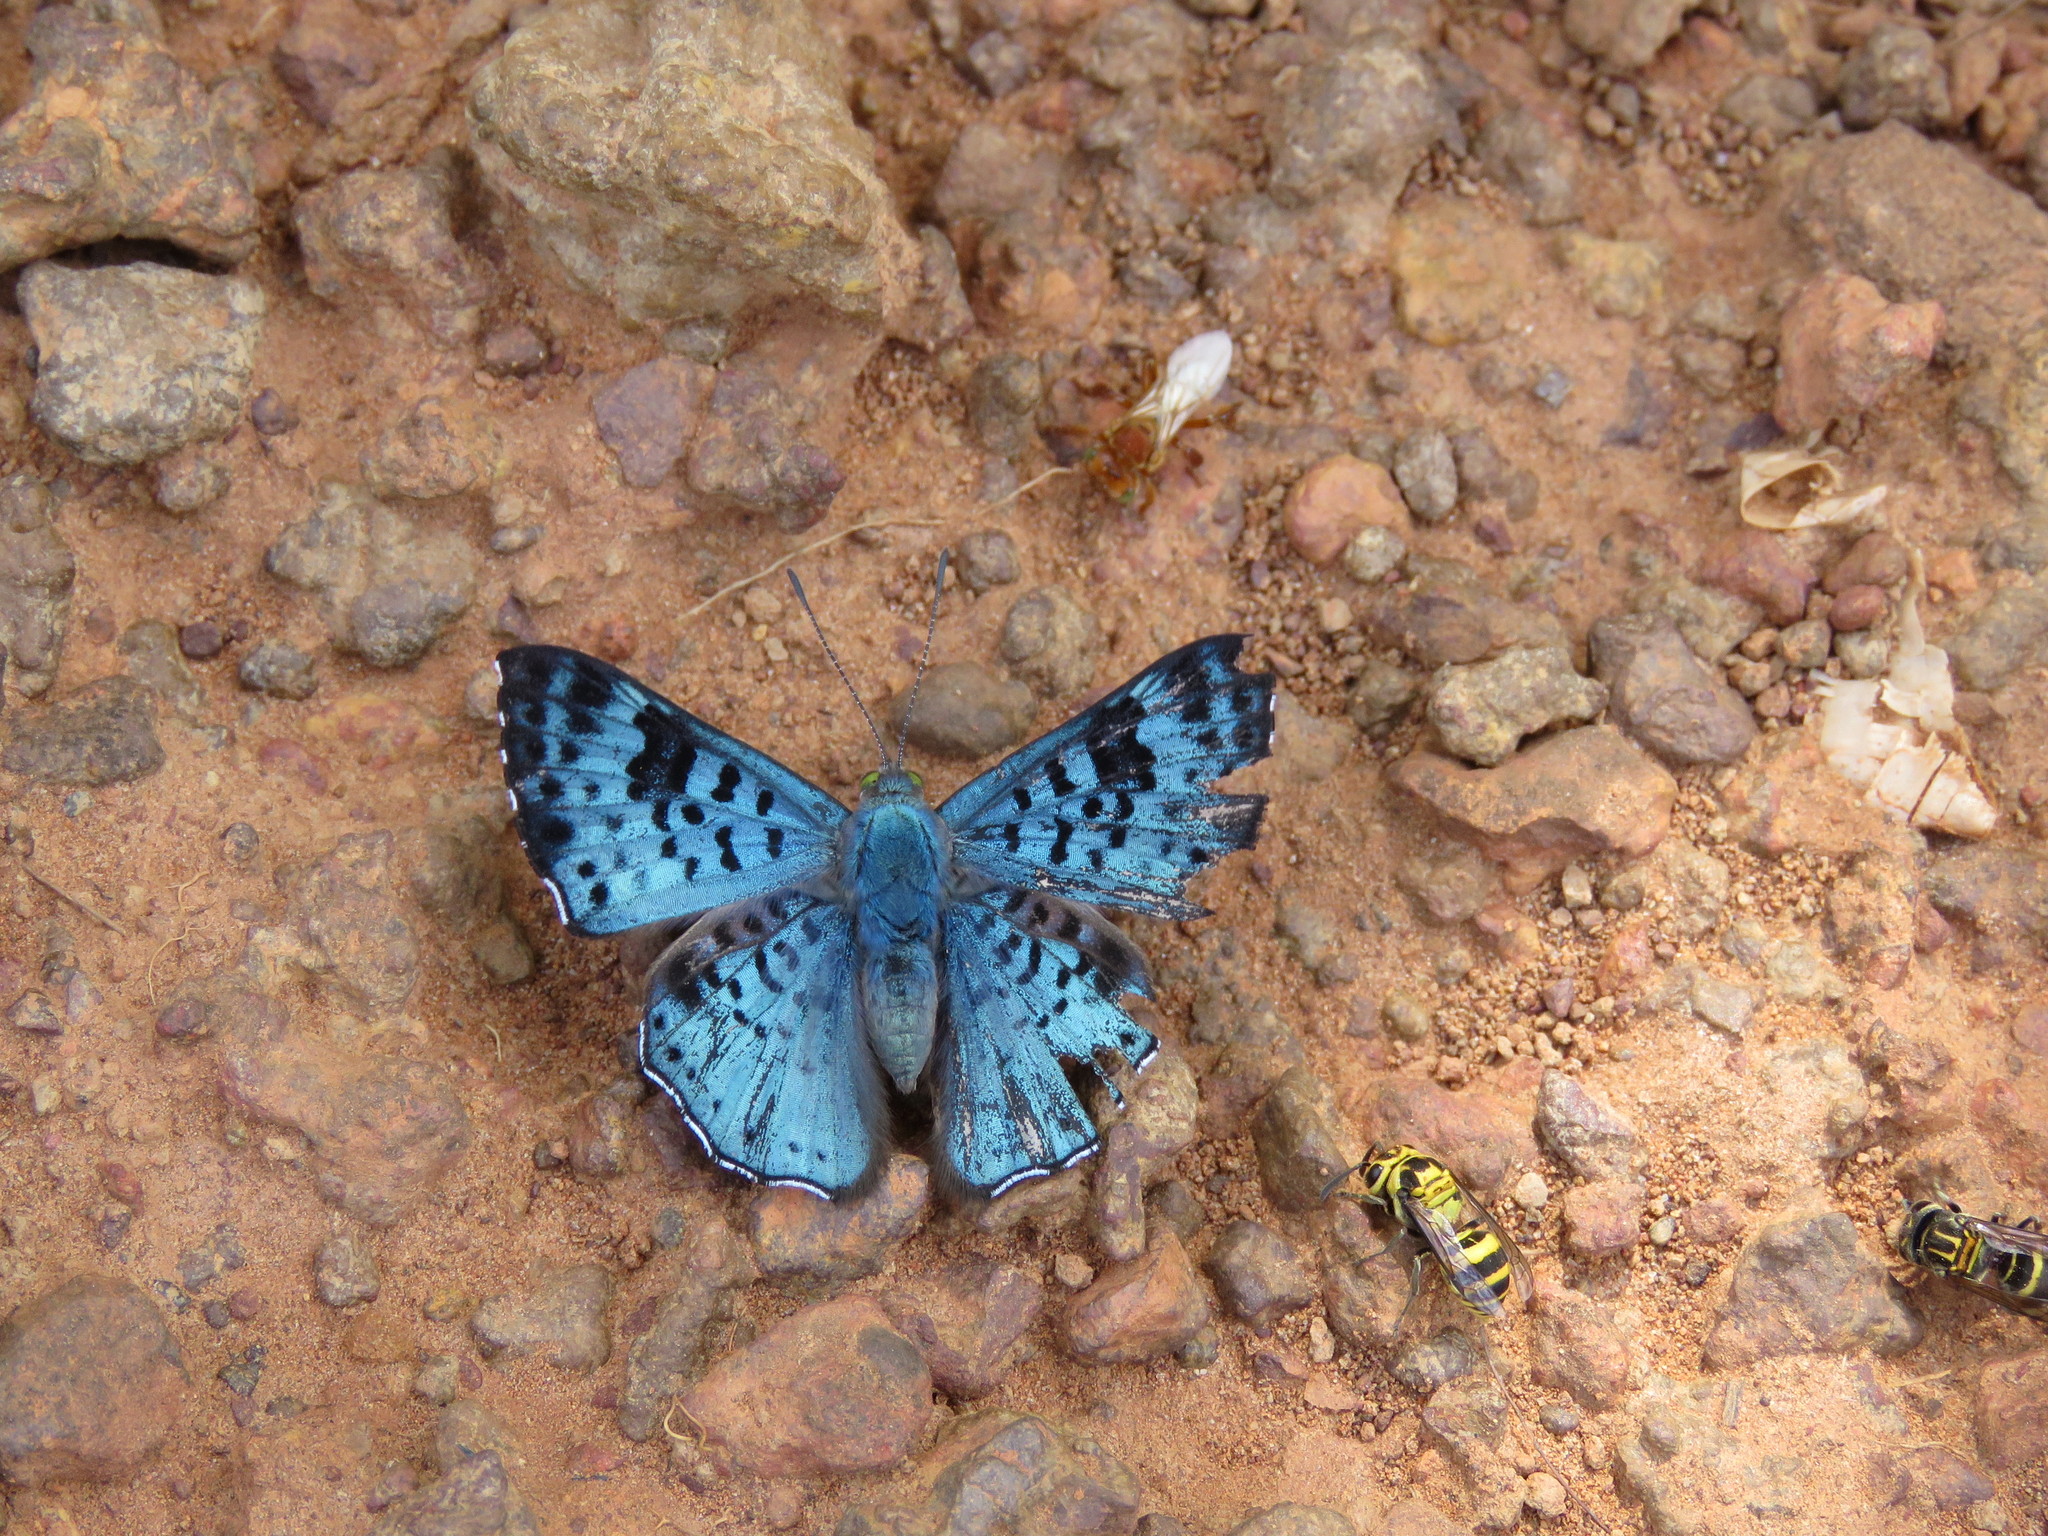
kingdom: Animalia
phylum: Arthropoda
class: Insecta
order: Lepidoptera
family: Riodinidae
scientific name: Riodinidae
